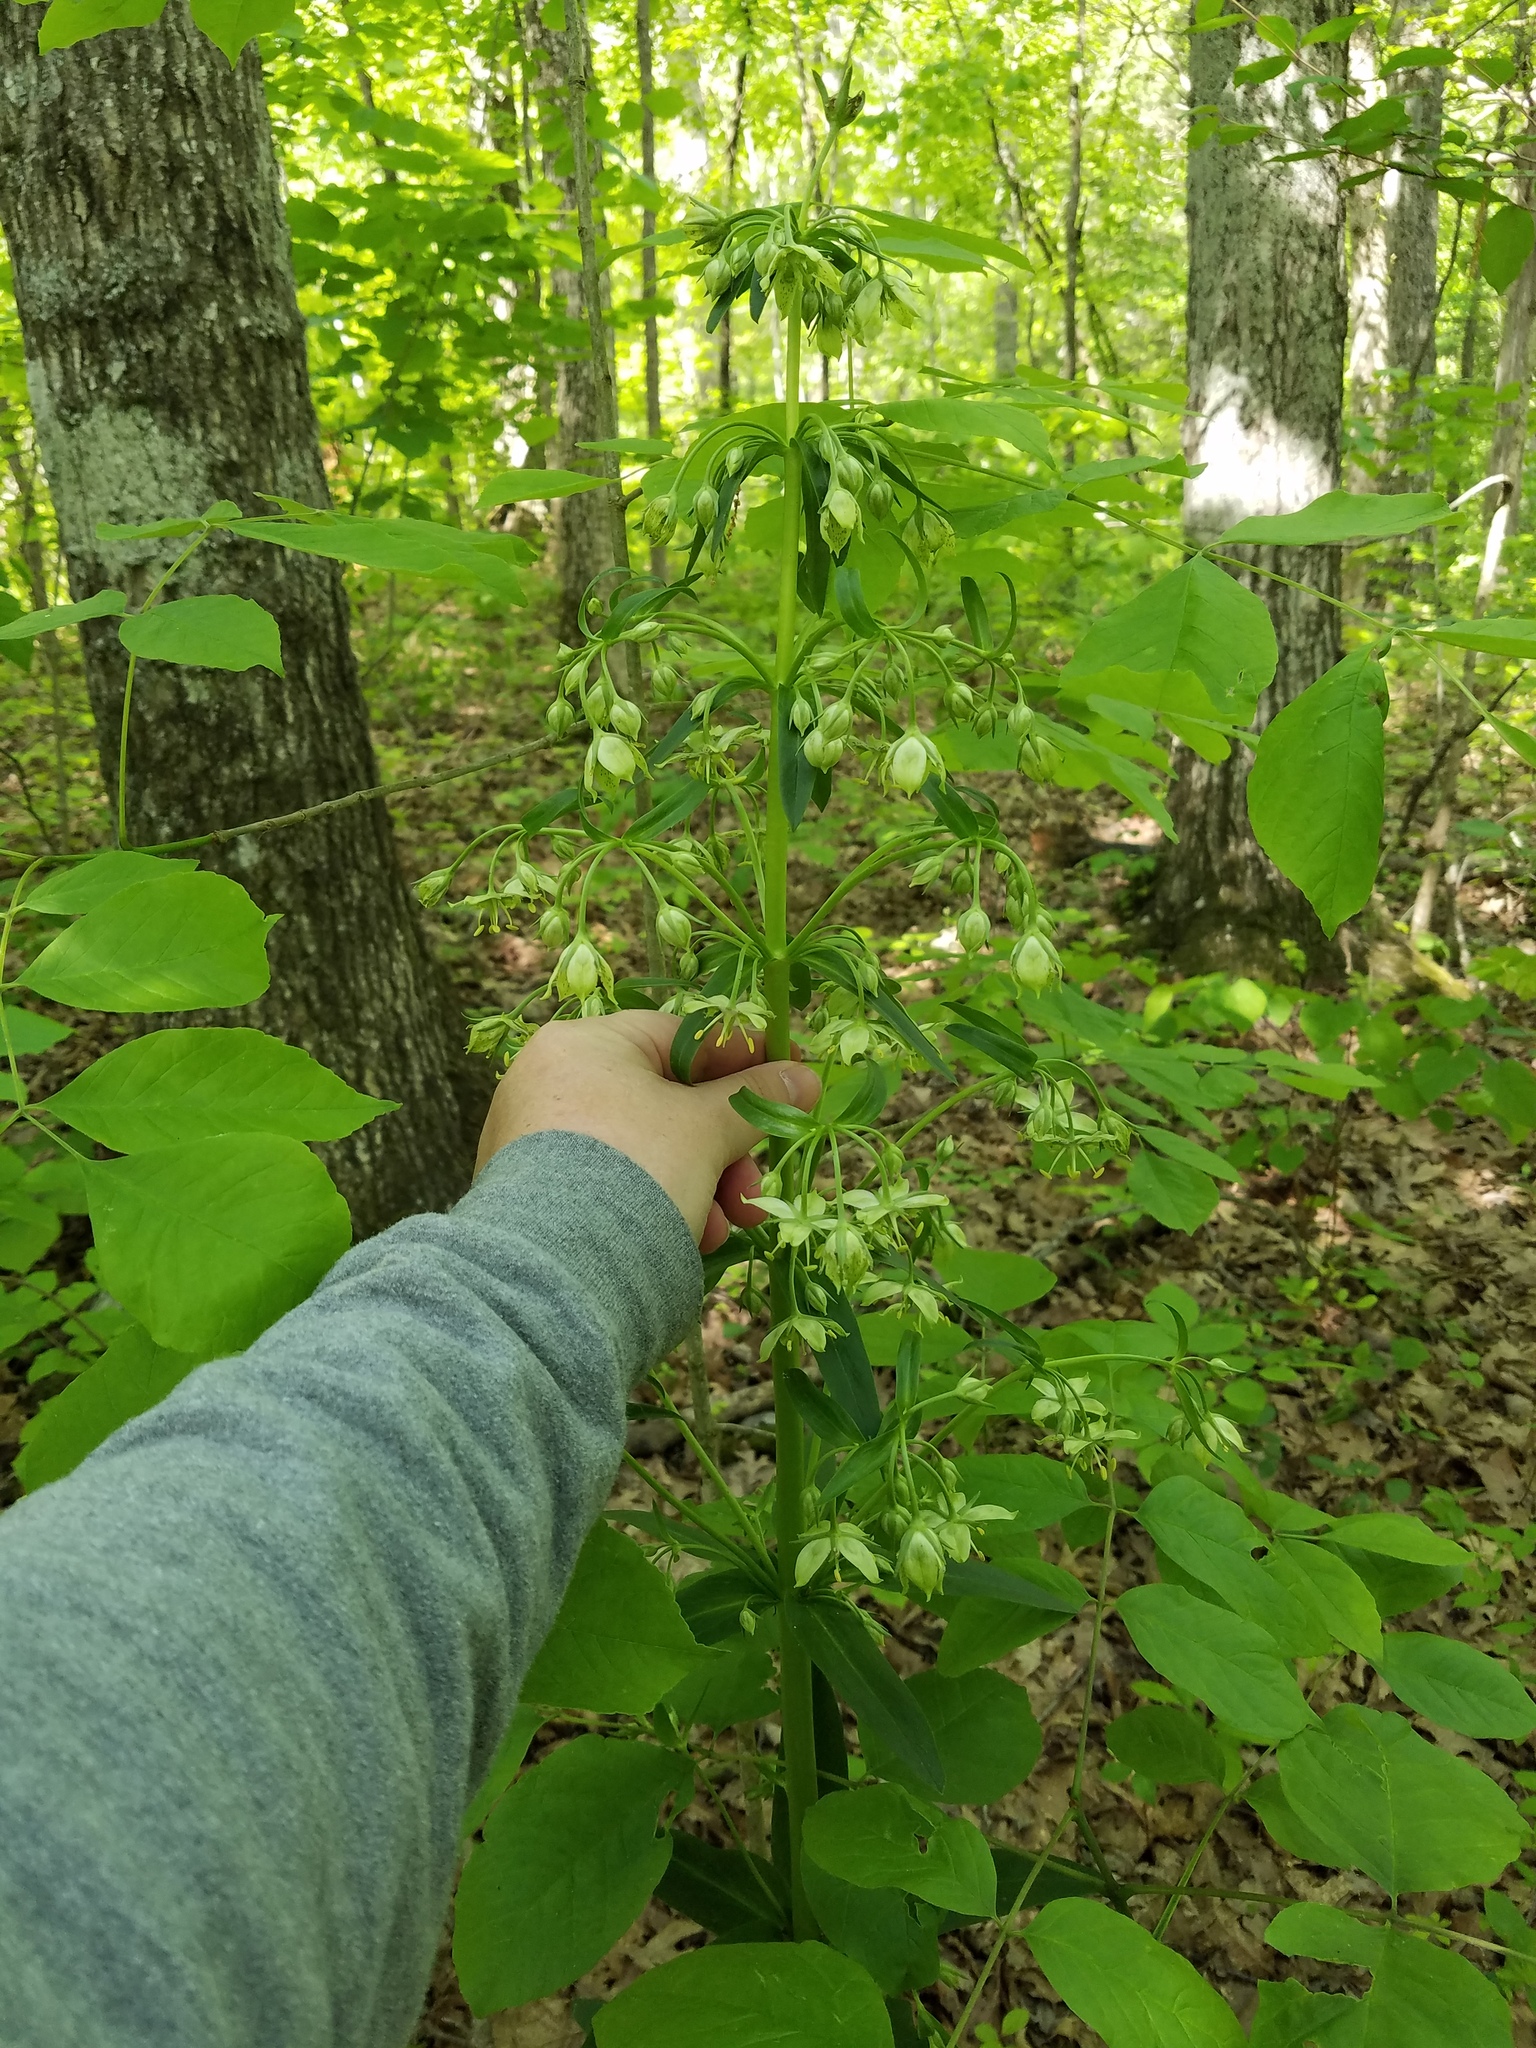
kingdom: Plantae
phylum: Tracheophyta
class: Magnoliopsida
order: Gentianales
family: Gentianaceae
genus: Frasera
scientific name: Frasera caroliniensis
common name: American columbo
